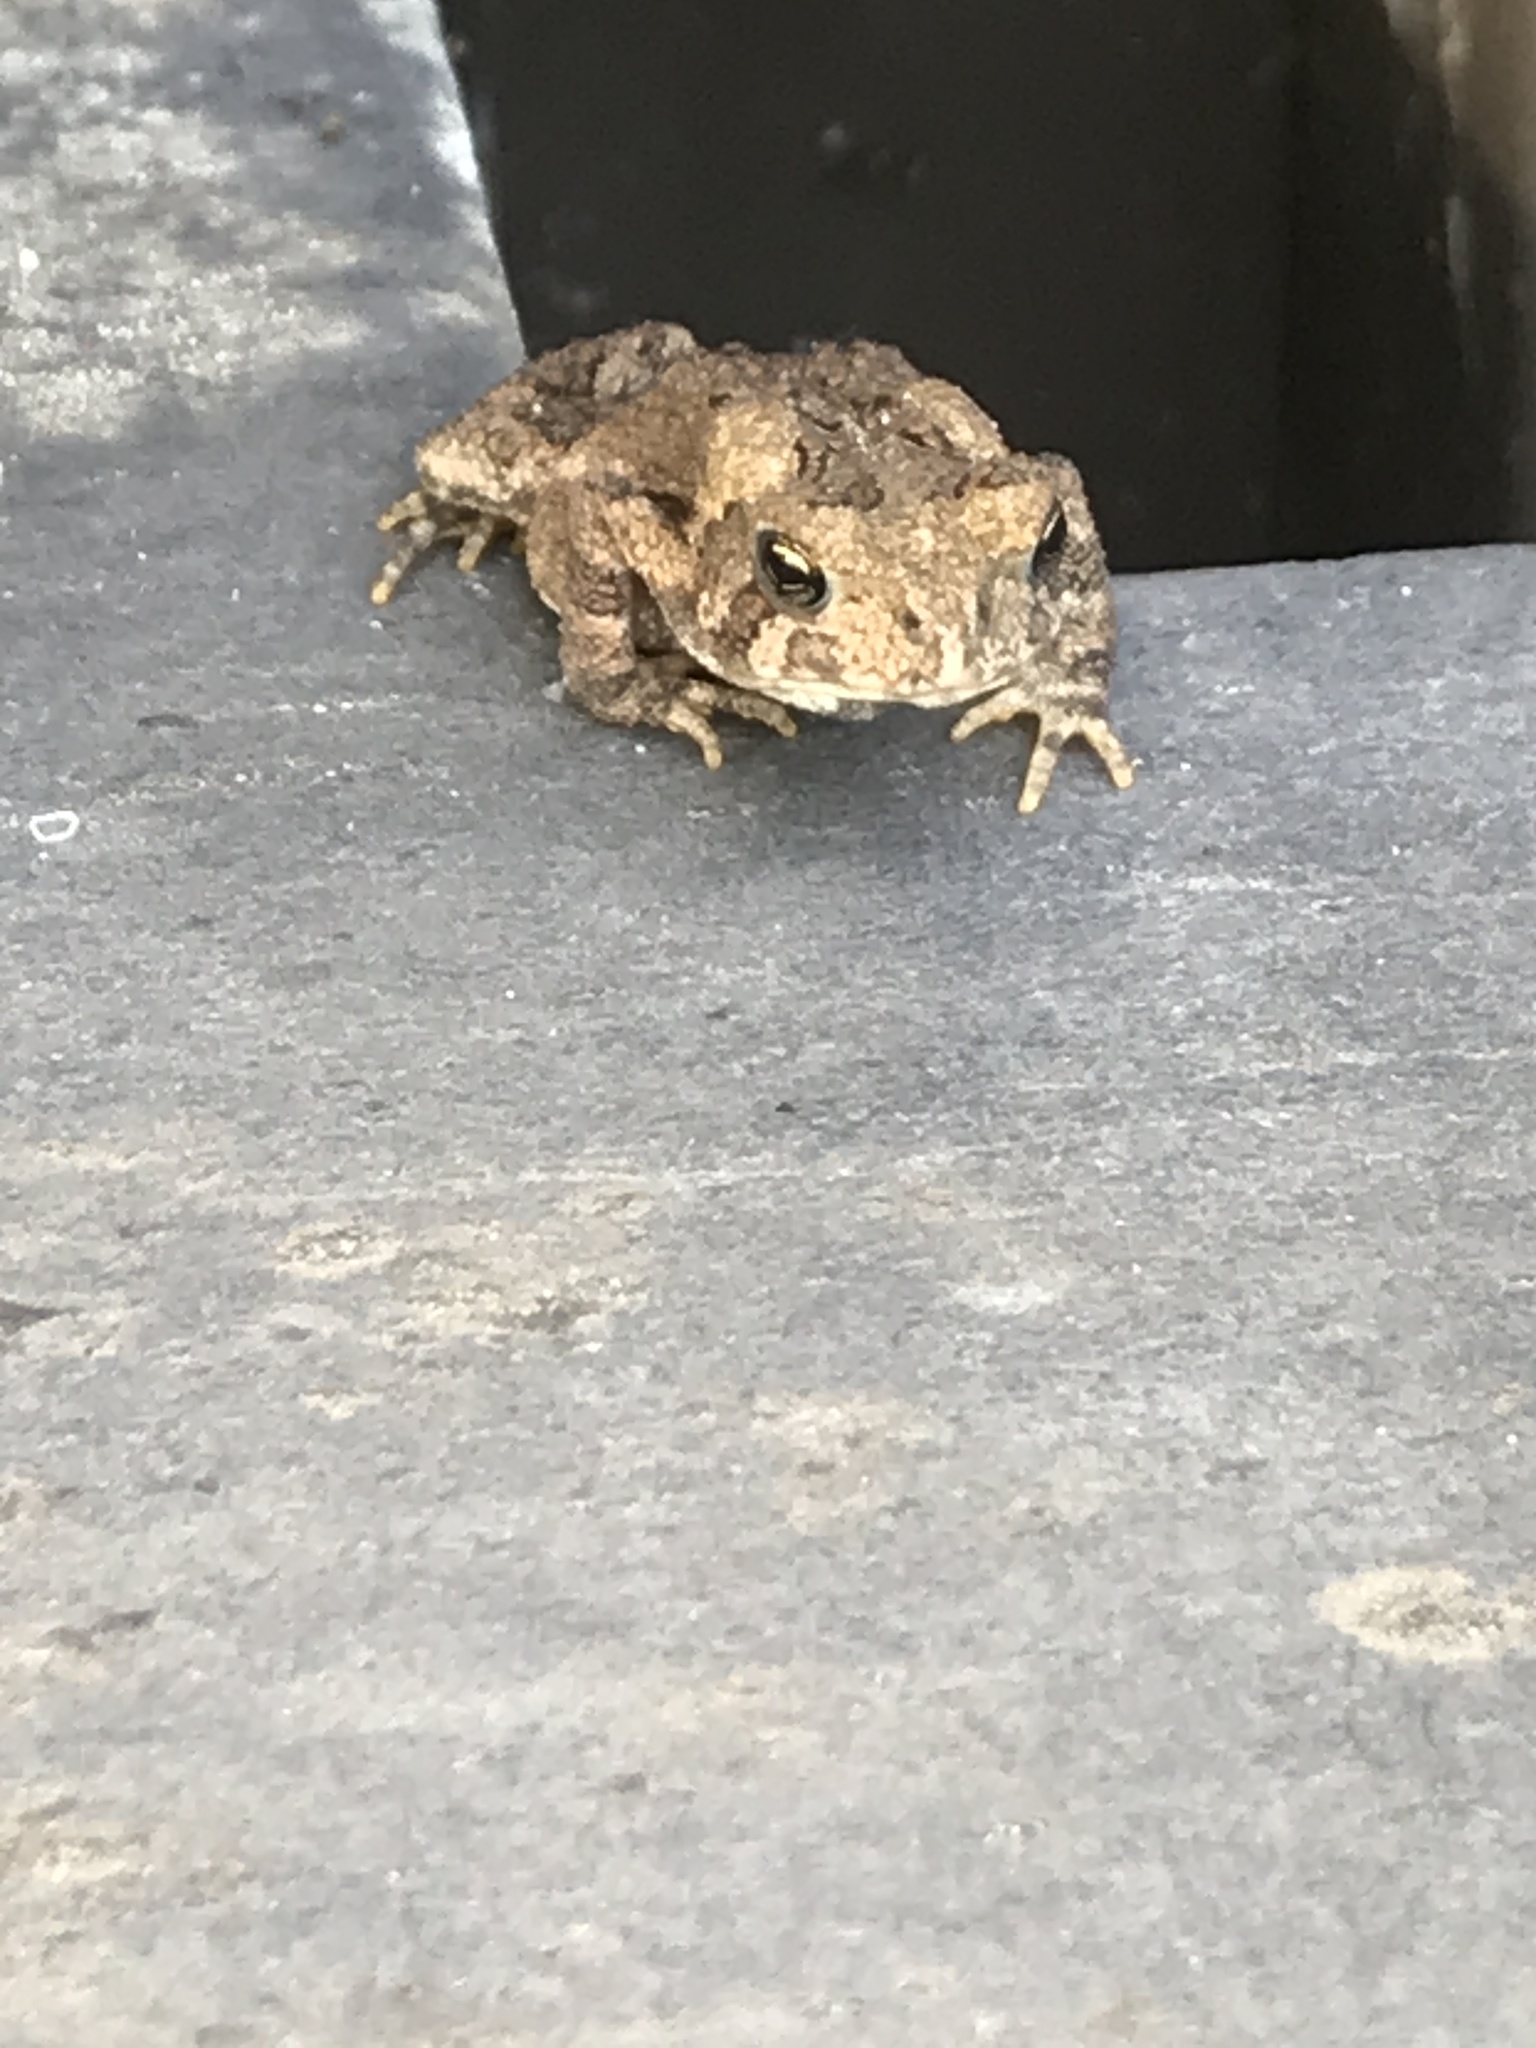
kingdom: Animalia
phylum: Chordata
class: Amphibia
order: Anura
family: Bufonidae
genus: Anaxyrus
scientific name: Anaxyrus americanus
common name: American toad
